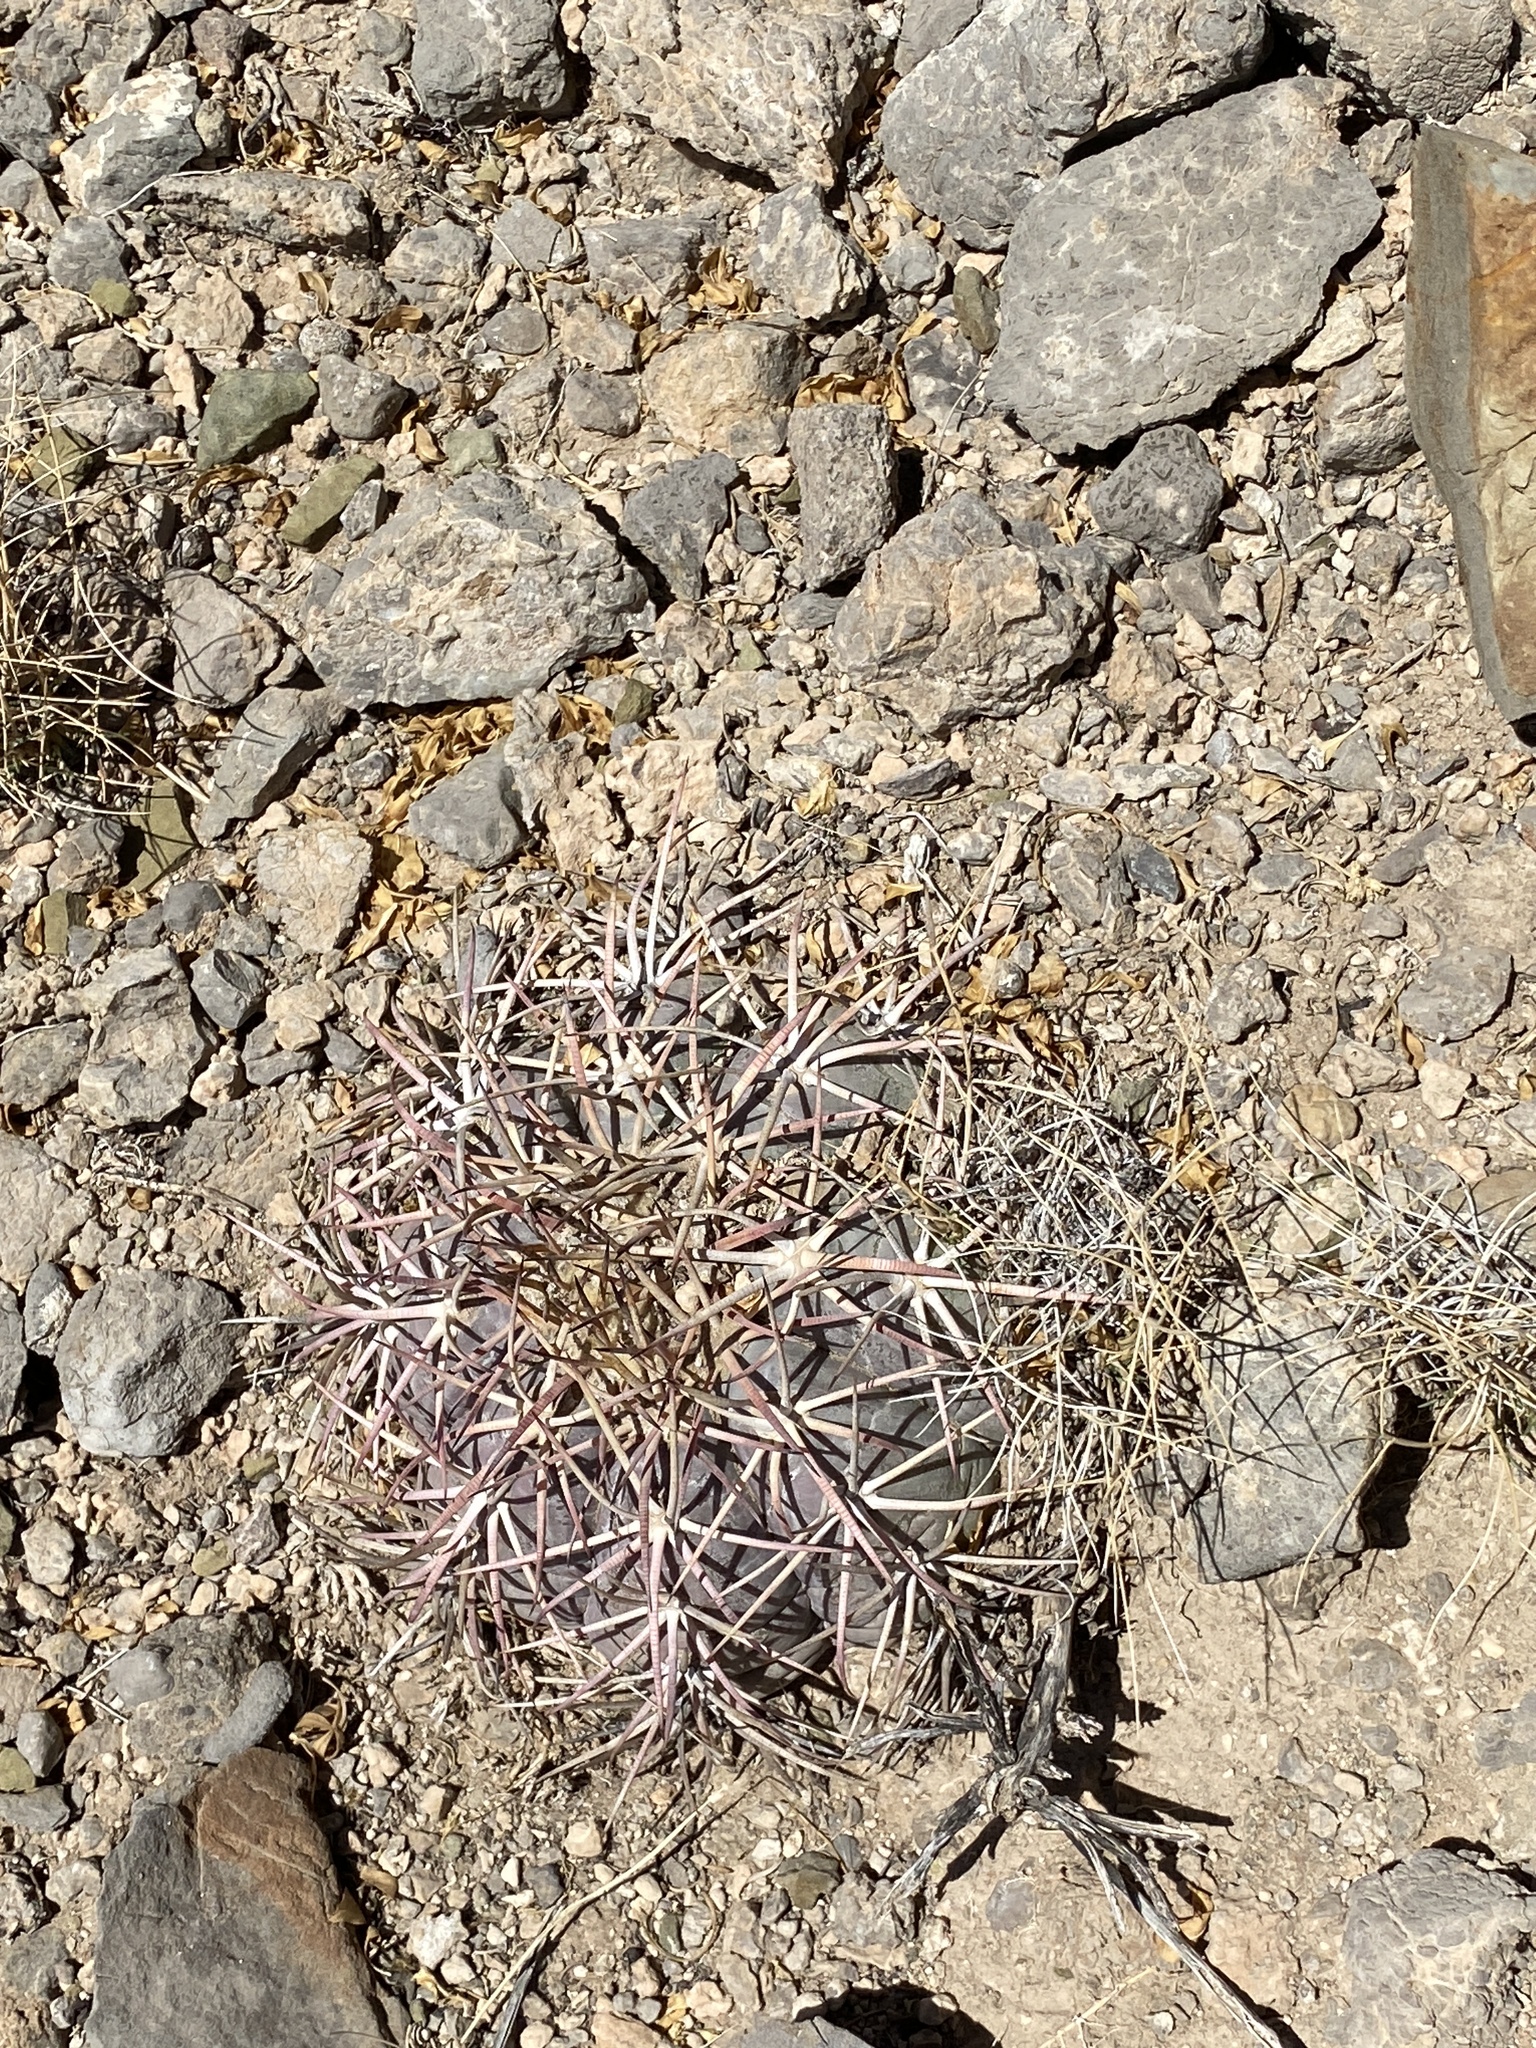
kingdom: Plantae
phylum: Tracheophyta
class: Magnoliopsida
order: Caryophyllales
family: Cactaceae
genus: Echinocactus
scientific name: Echinocactus horizonthalonius
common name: Devilshead
